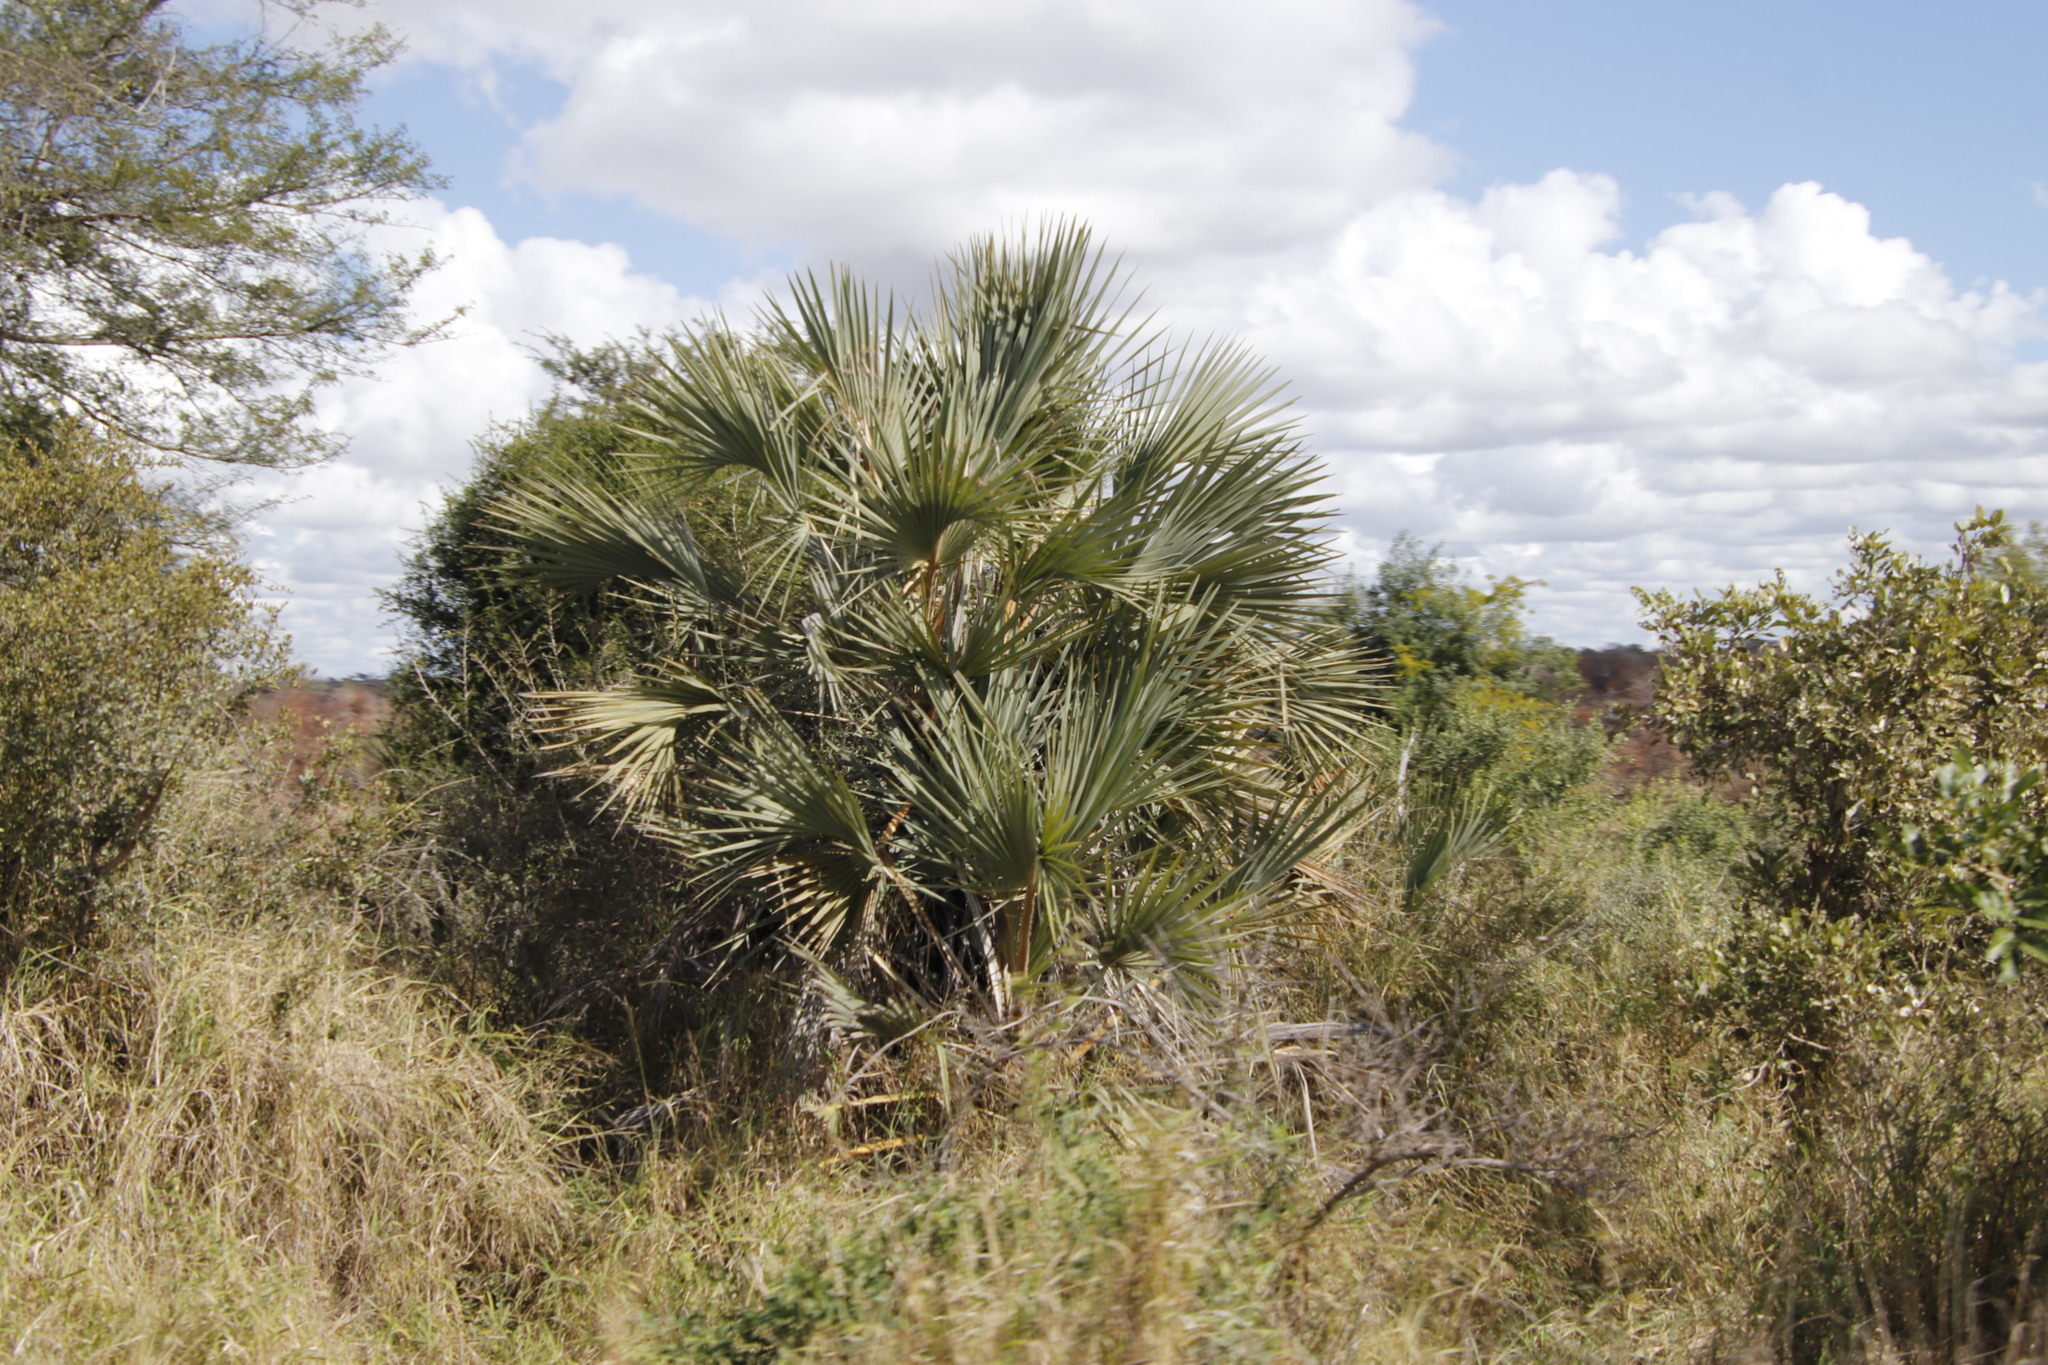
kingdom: Plantae
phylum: Tracheophyta
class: Liliopsida
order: Arecales
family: Arecaceae
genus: Hyphaene
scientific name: Hyphaene coriacea
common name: Ilala palm
